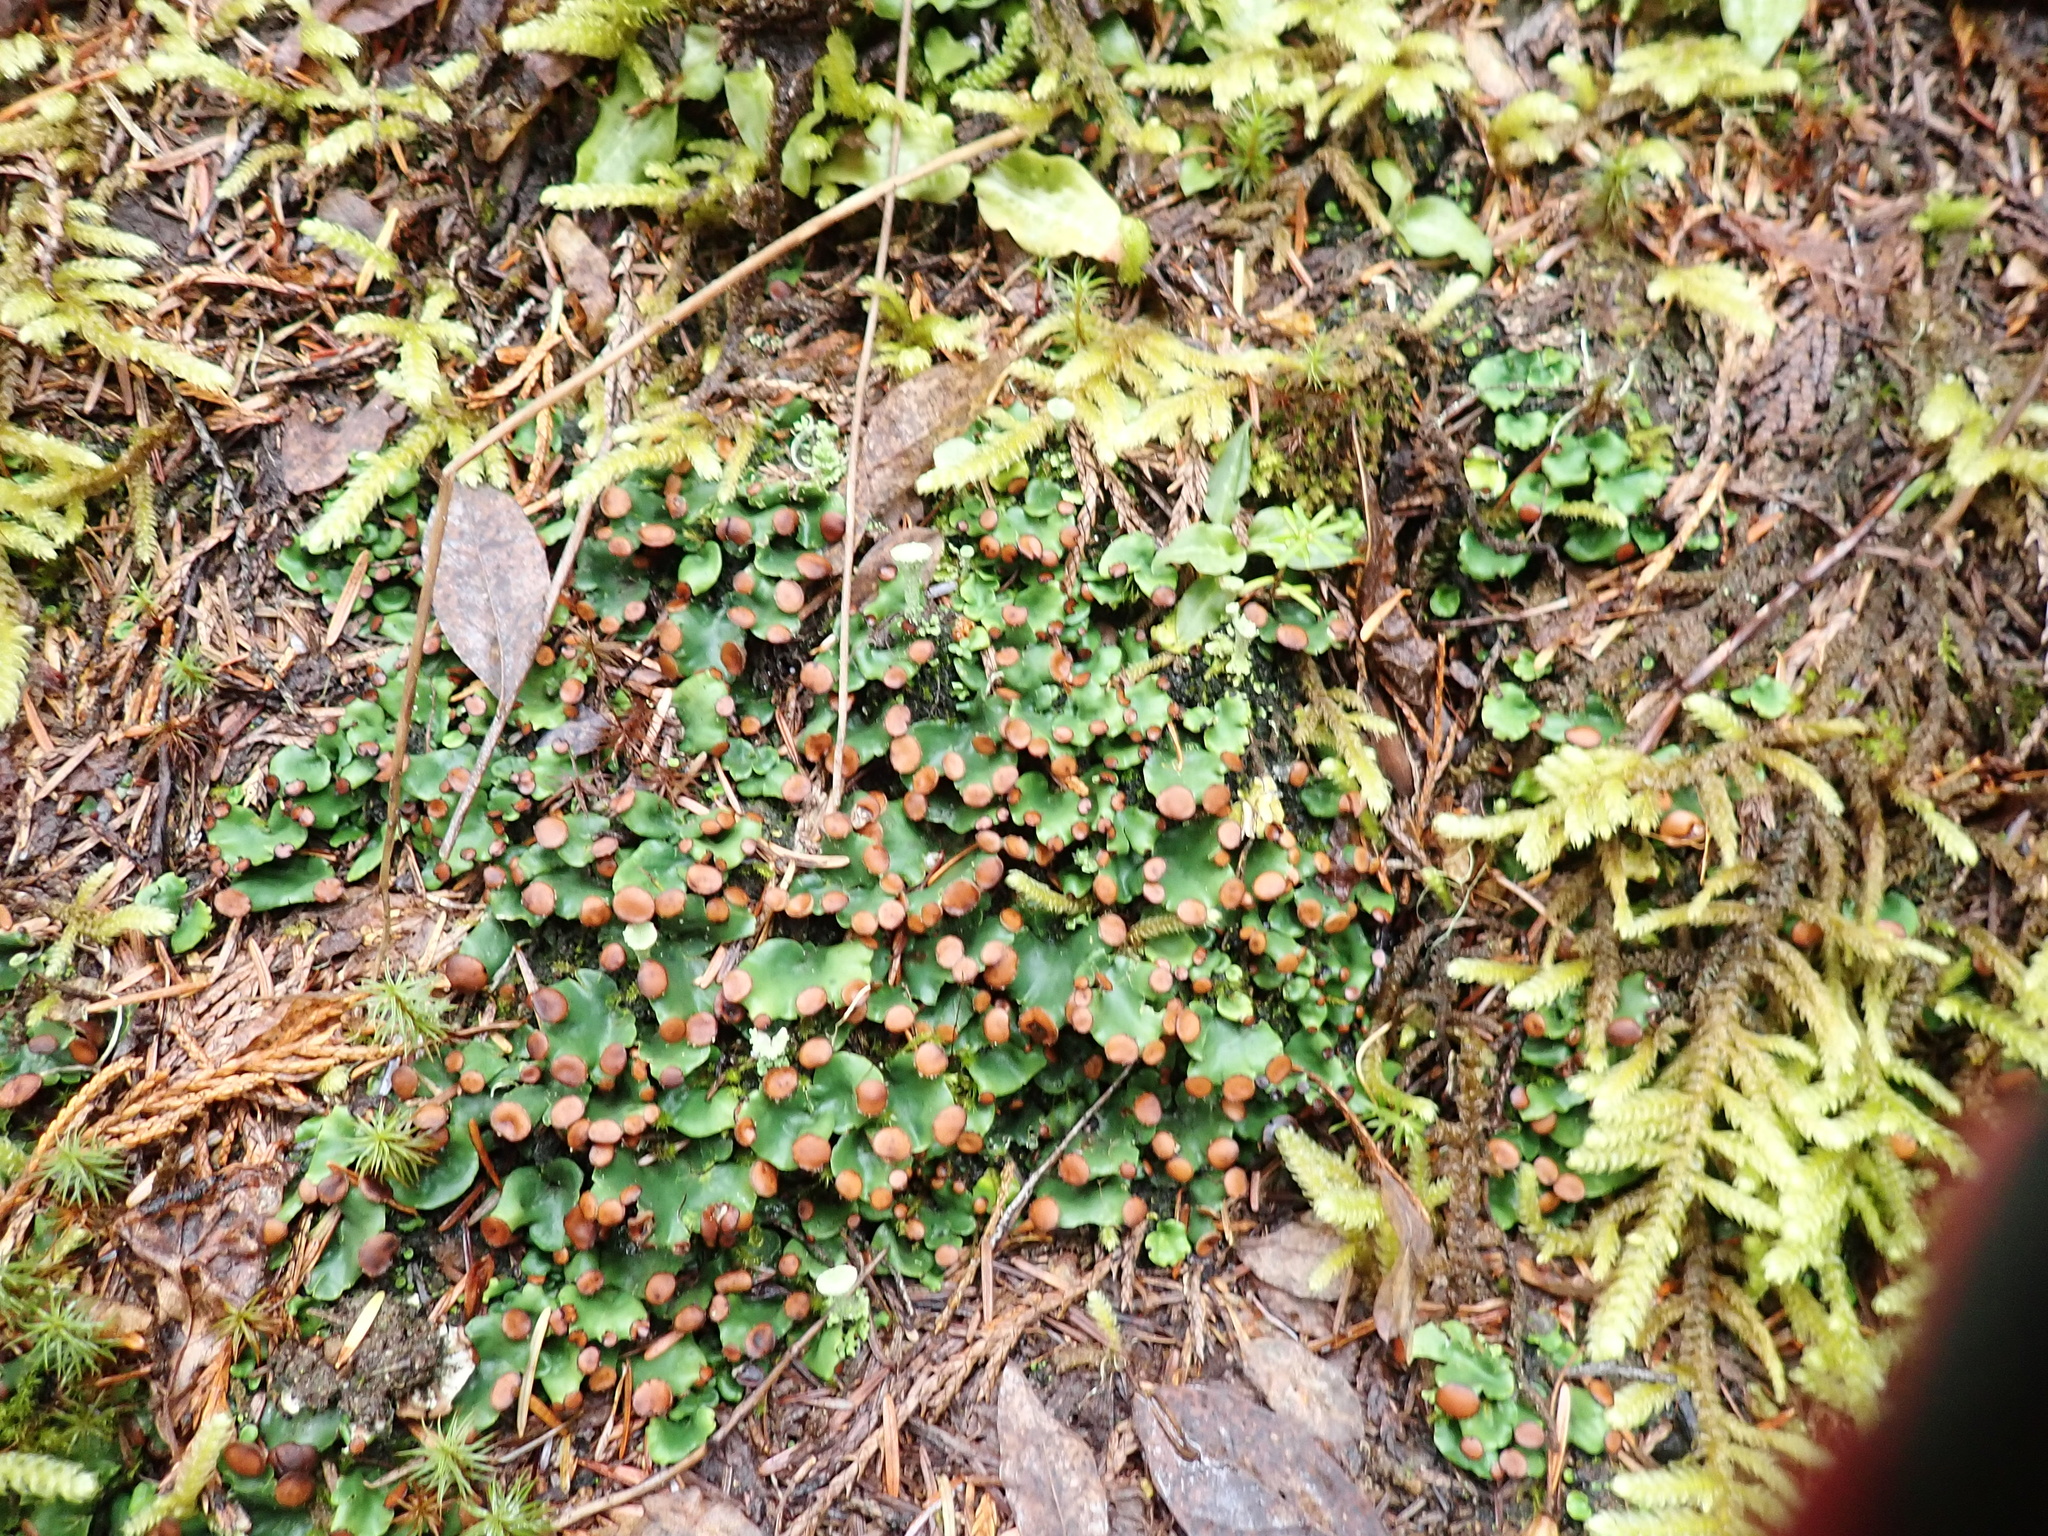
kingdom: Fungi
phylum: Ascomycota
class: Lecanoromycetes
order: Peltigerales
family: Peltigeraceae
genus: Peltigera
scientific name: Peltigera venosa
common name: Pixie gowns lichen
